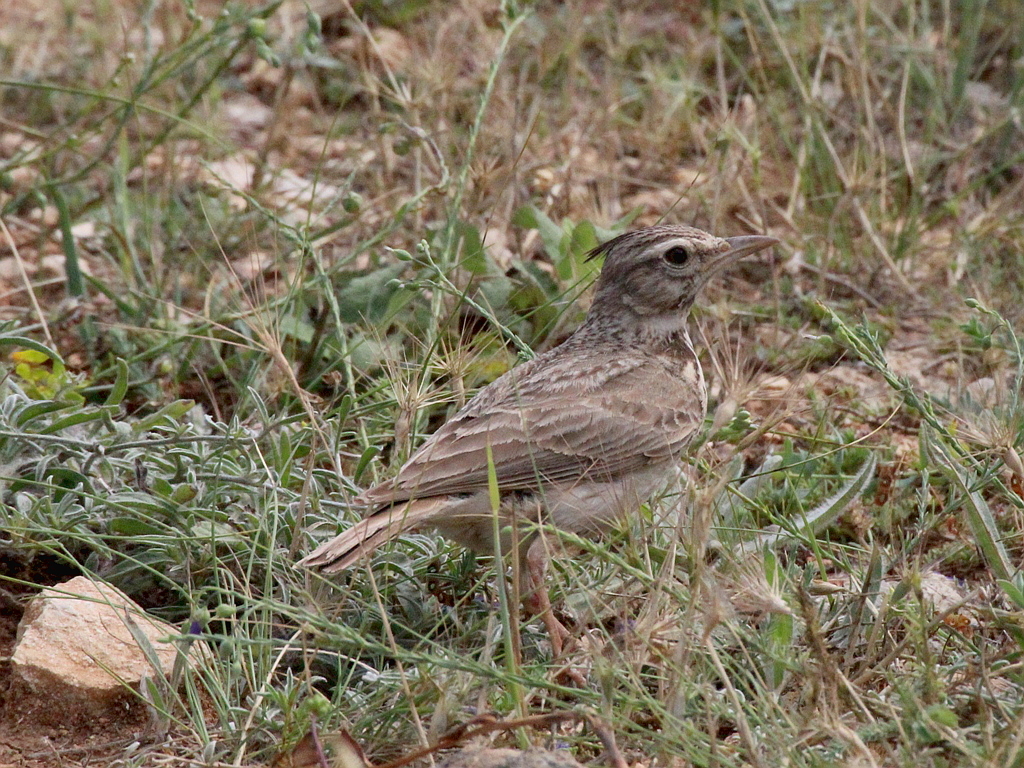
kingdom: Animalia
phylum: Chordata
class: Aves
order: Passeriformes
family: Alaudidae
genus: Galerida
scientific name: Galerida cristata
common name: Crested lark
